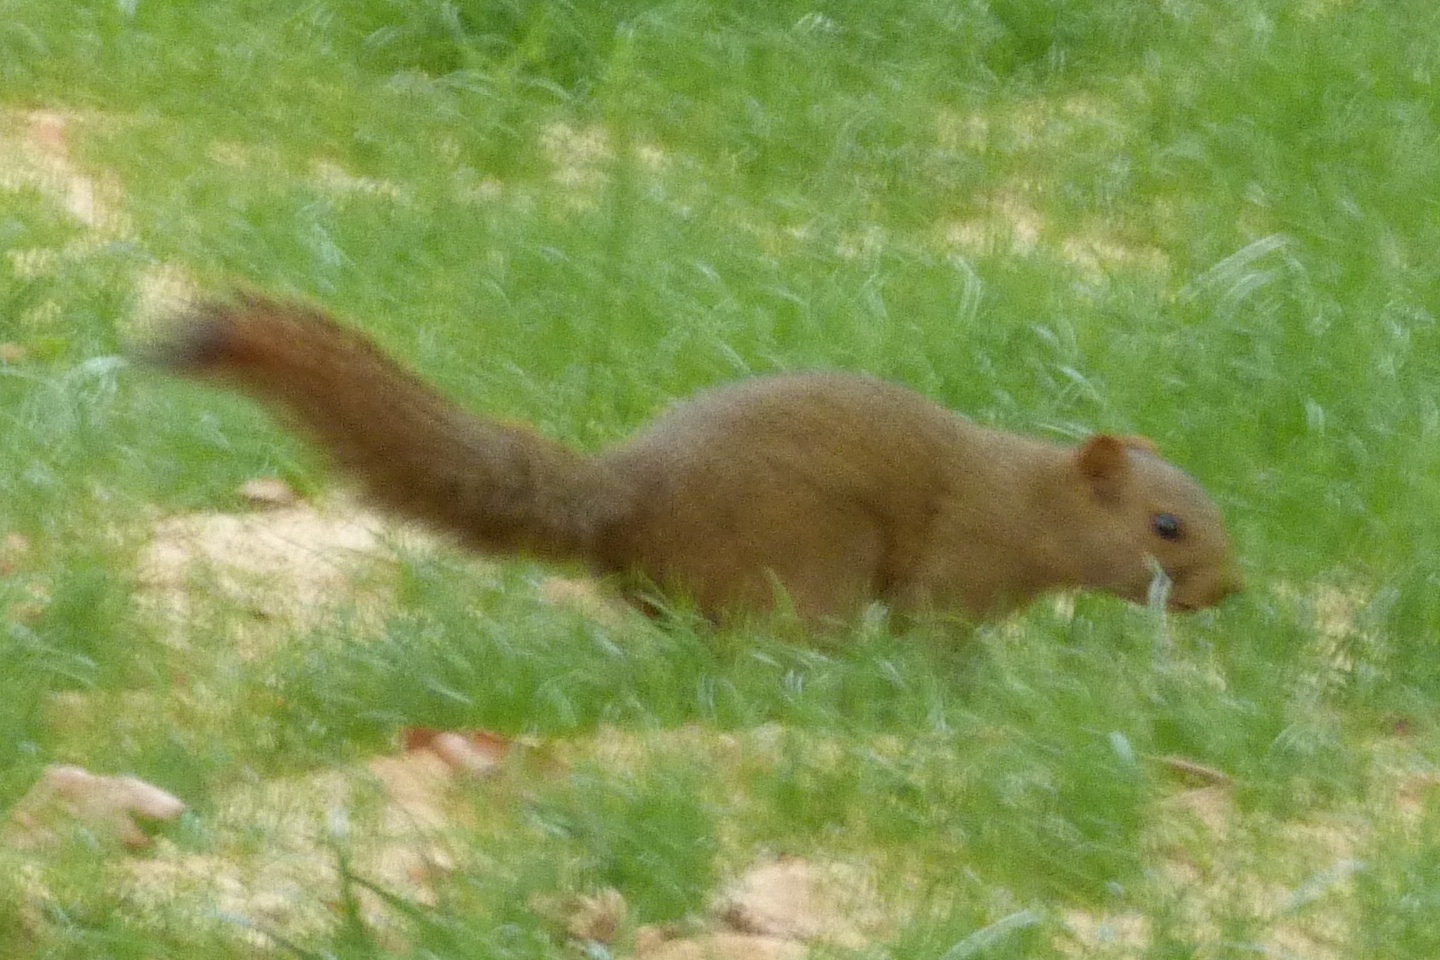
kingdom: Animalia
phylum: Chordata
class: Mammalia
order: Rodentia
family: Sciuridae
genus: Callosciurus
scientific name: Callosciurus erythraeus
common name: Pallas's squirrel
